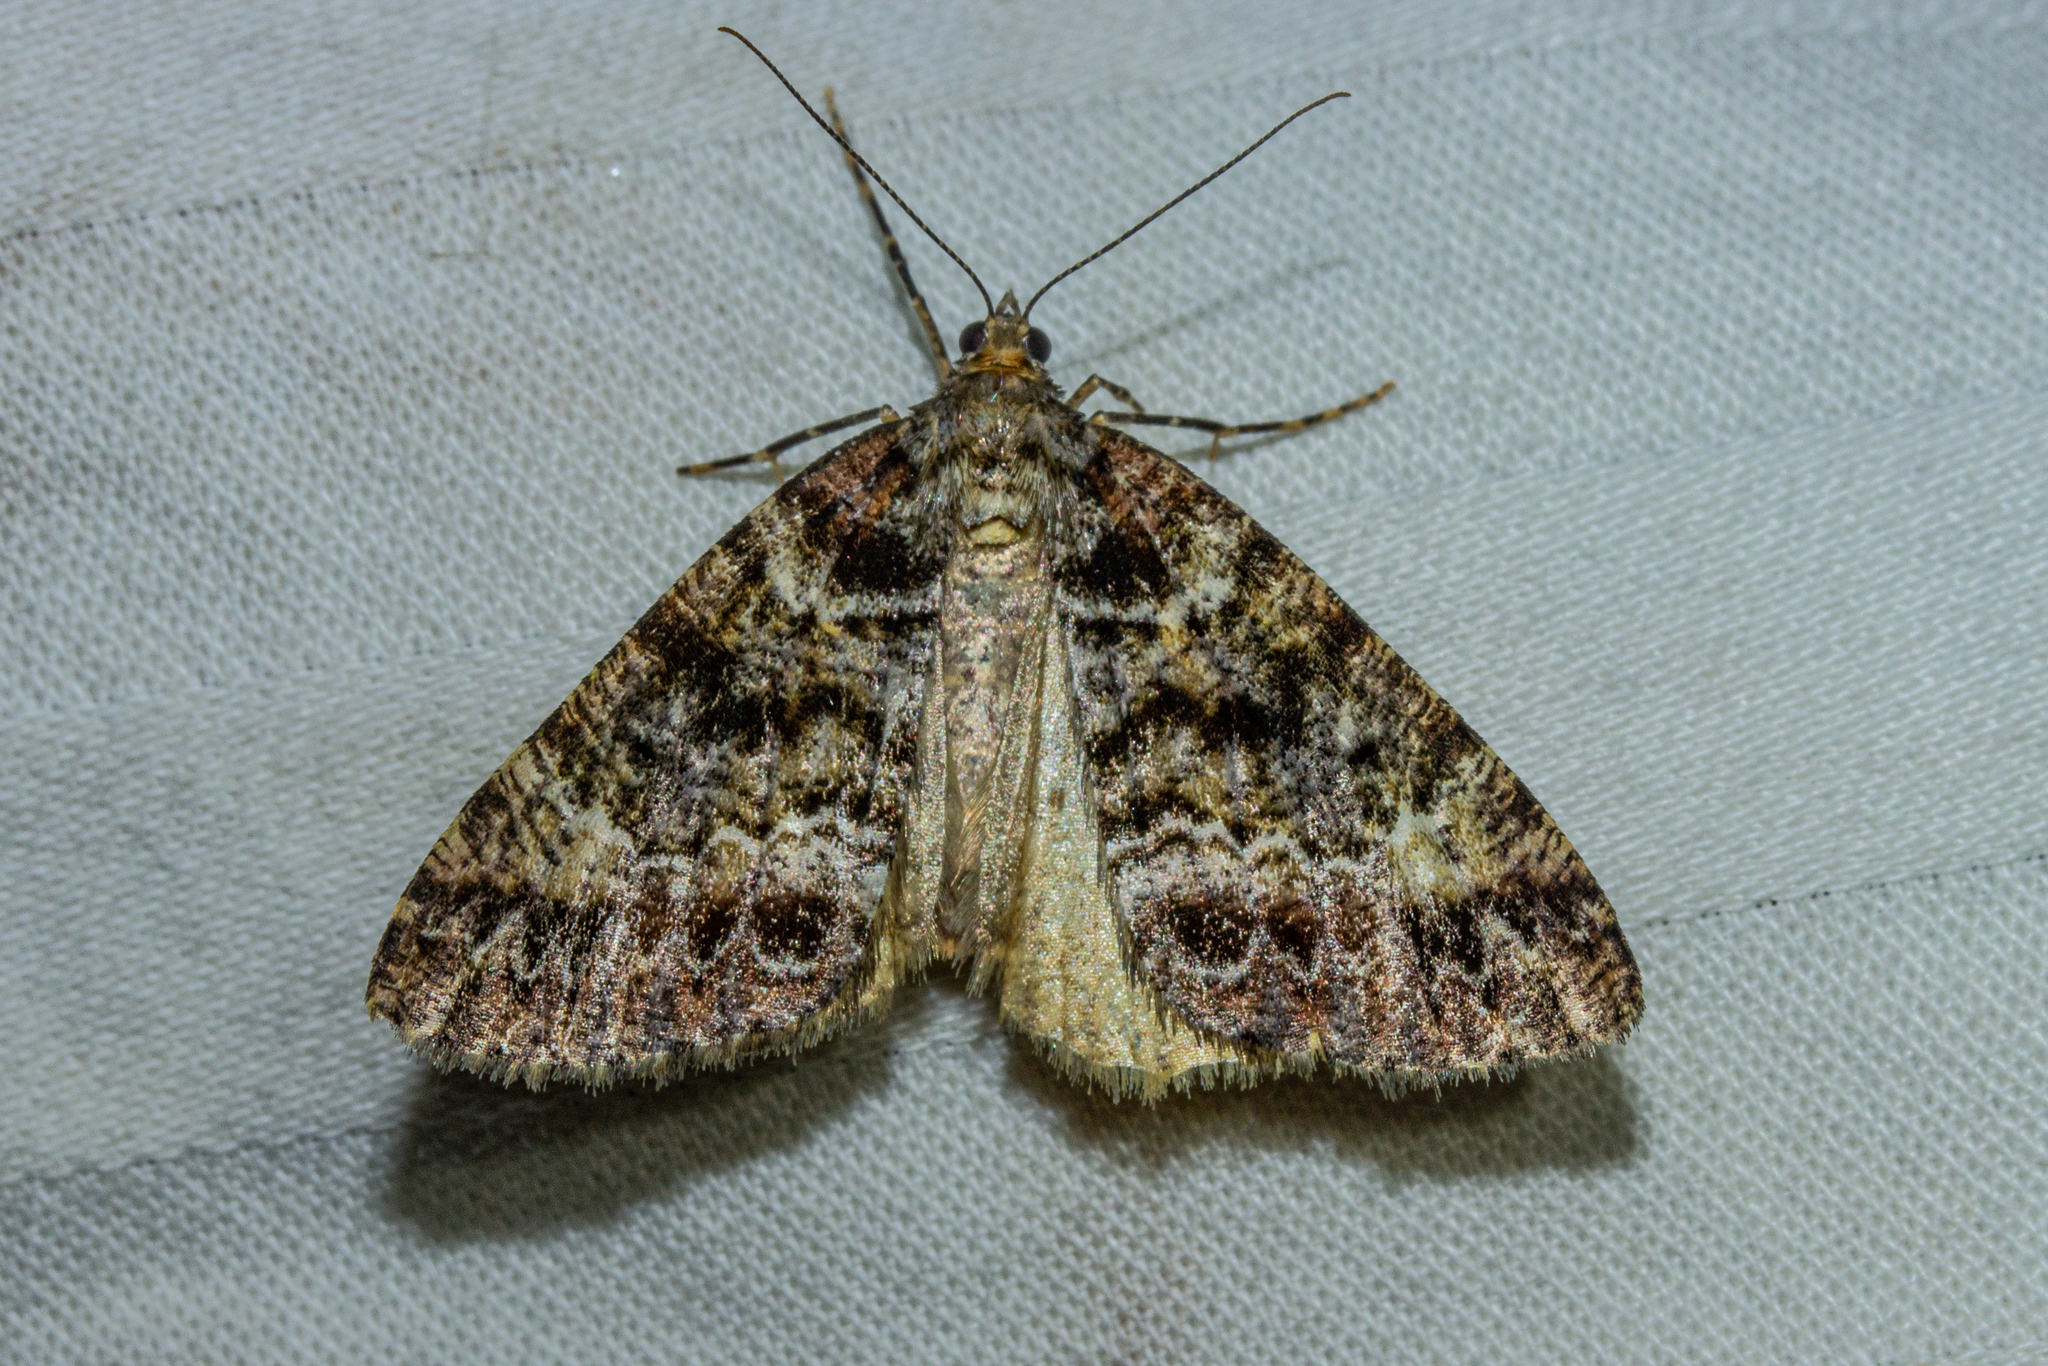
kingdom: Animalia
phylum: Arthropoda
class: Insecta
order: Lepidoptera
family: Geometridae
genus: Pseudocoremia
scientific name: Pseudocoremia productata
